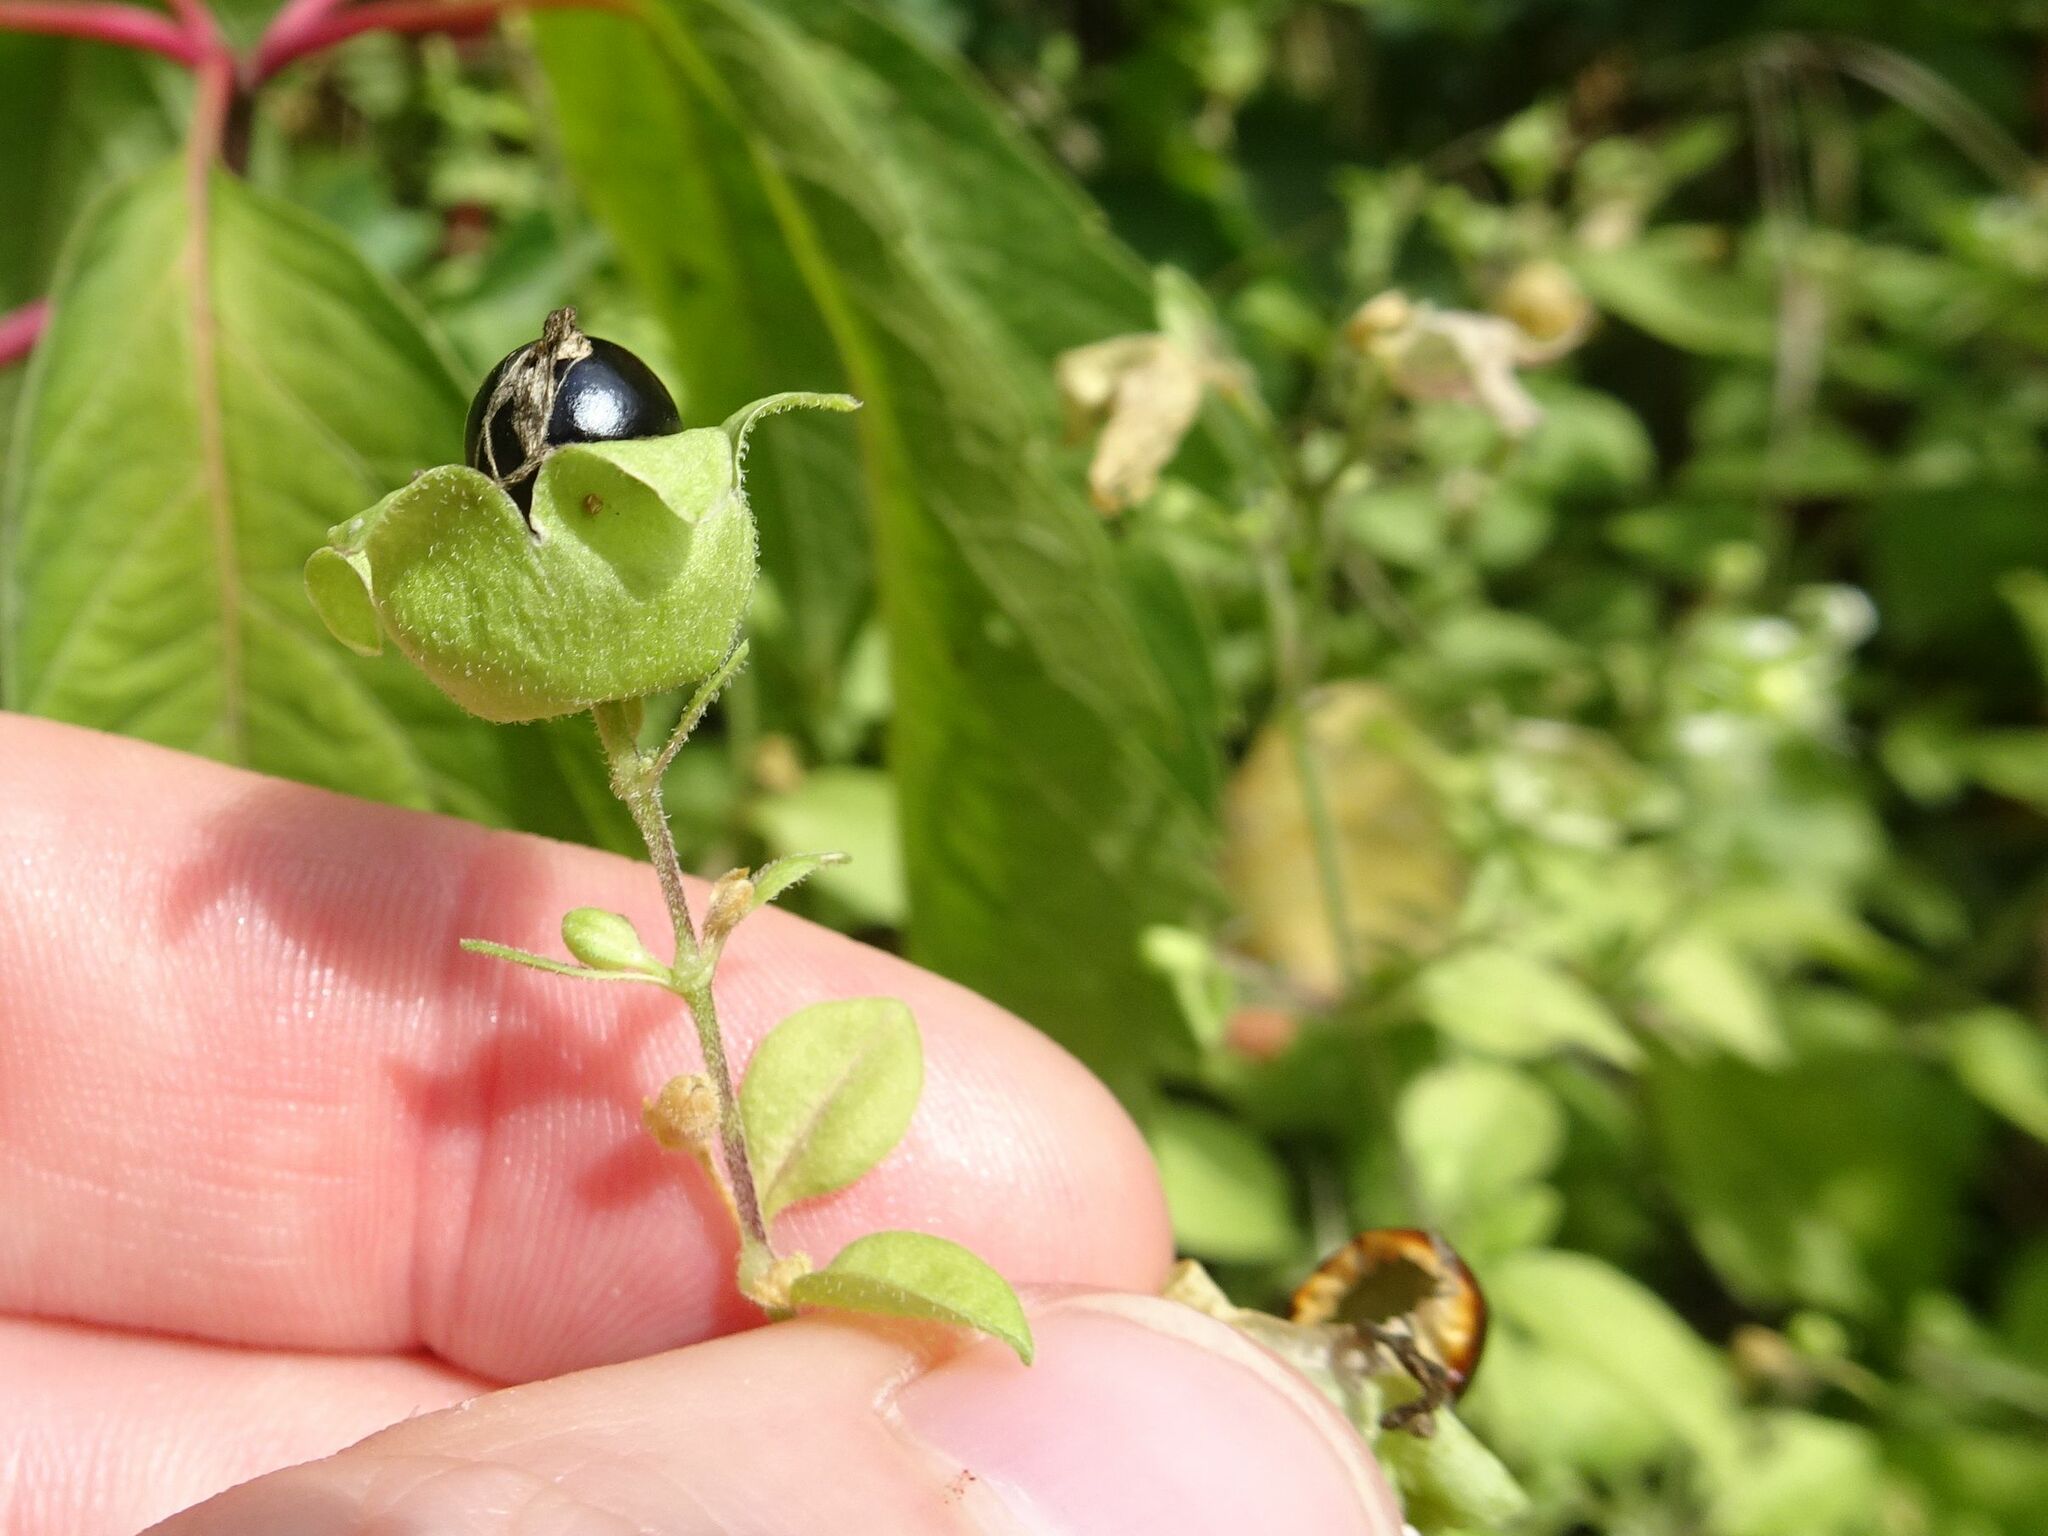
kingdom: Plantae
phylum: Tracheophyta
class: Magnoliopsida
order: Caryophyllales
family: Caryophyllaceae
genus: Silene
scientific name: Silene baccifera
